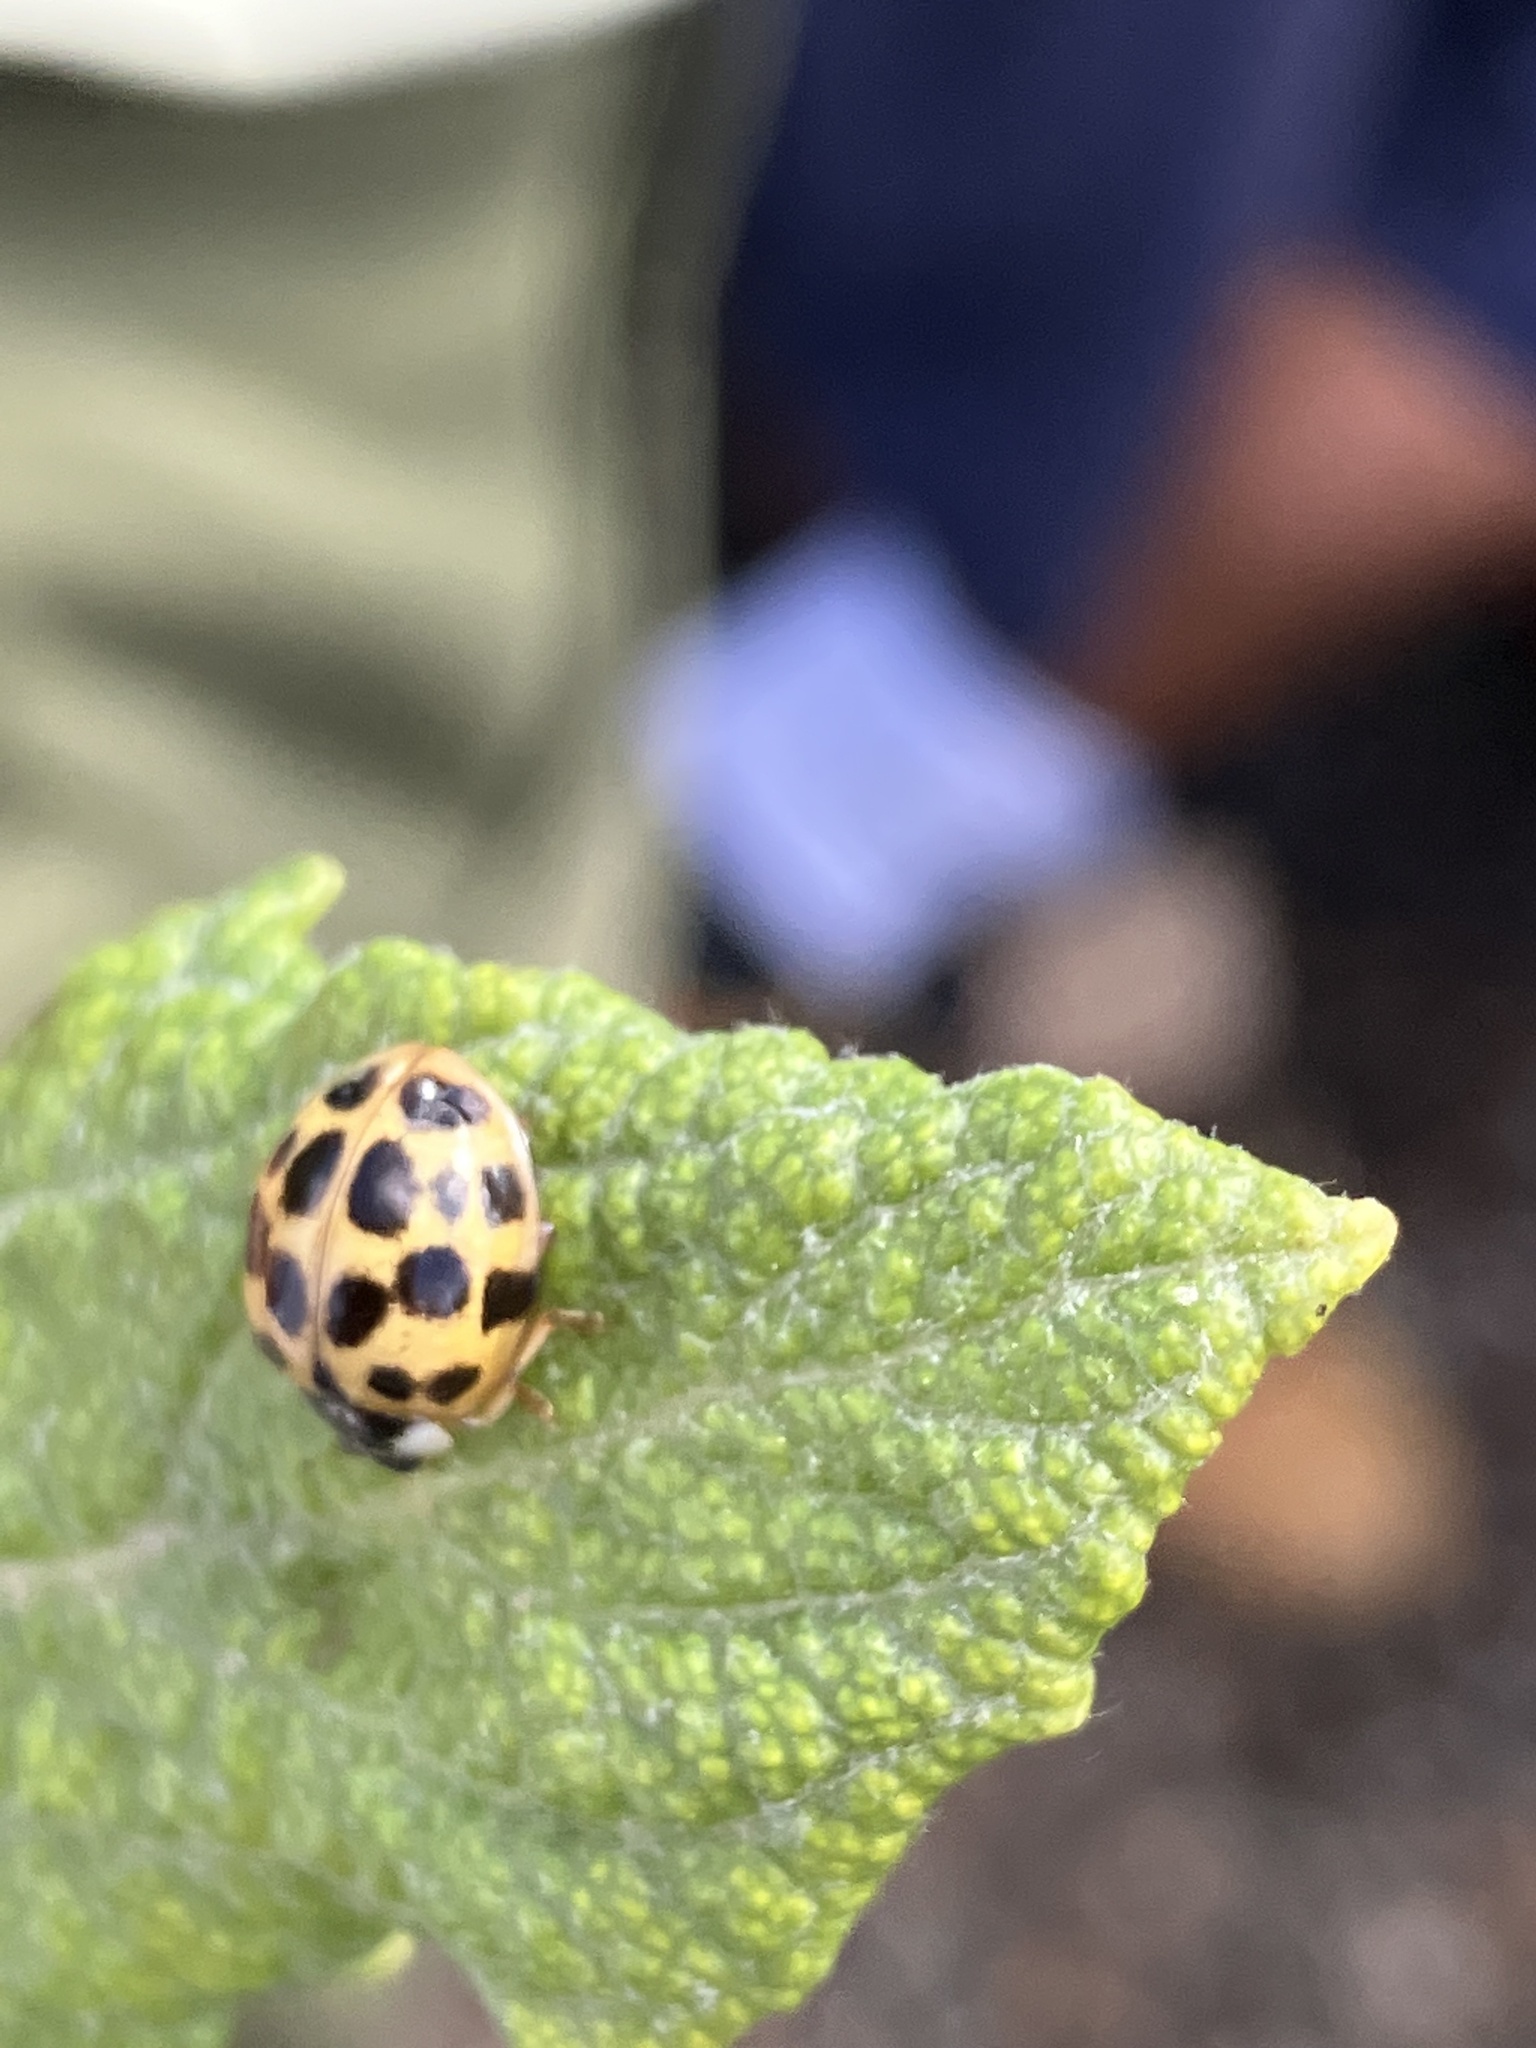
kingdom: Animalia
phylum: Arthropoda
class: Insecta
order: Coleoptera
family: Coccinellidae
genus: Harmonia
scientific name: Harmonia axyridis
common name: Harlequin ladybird
